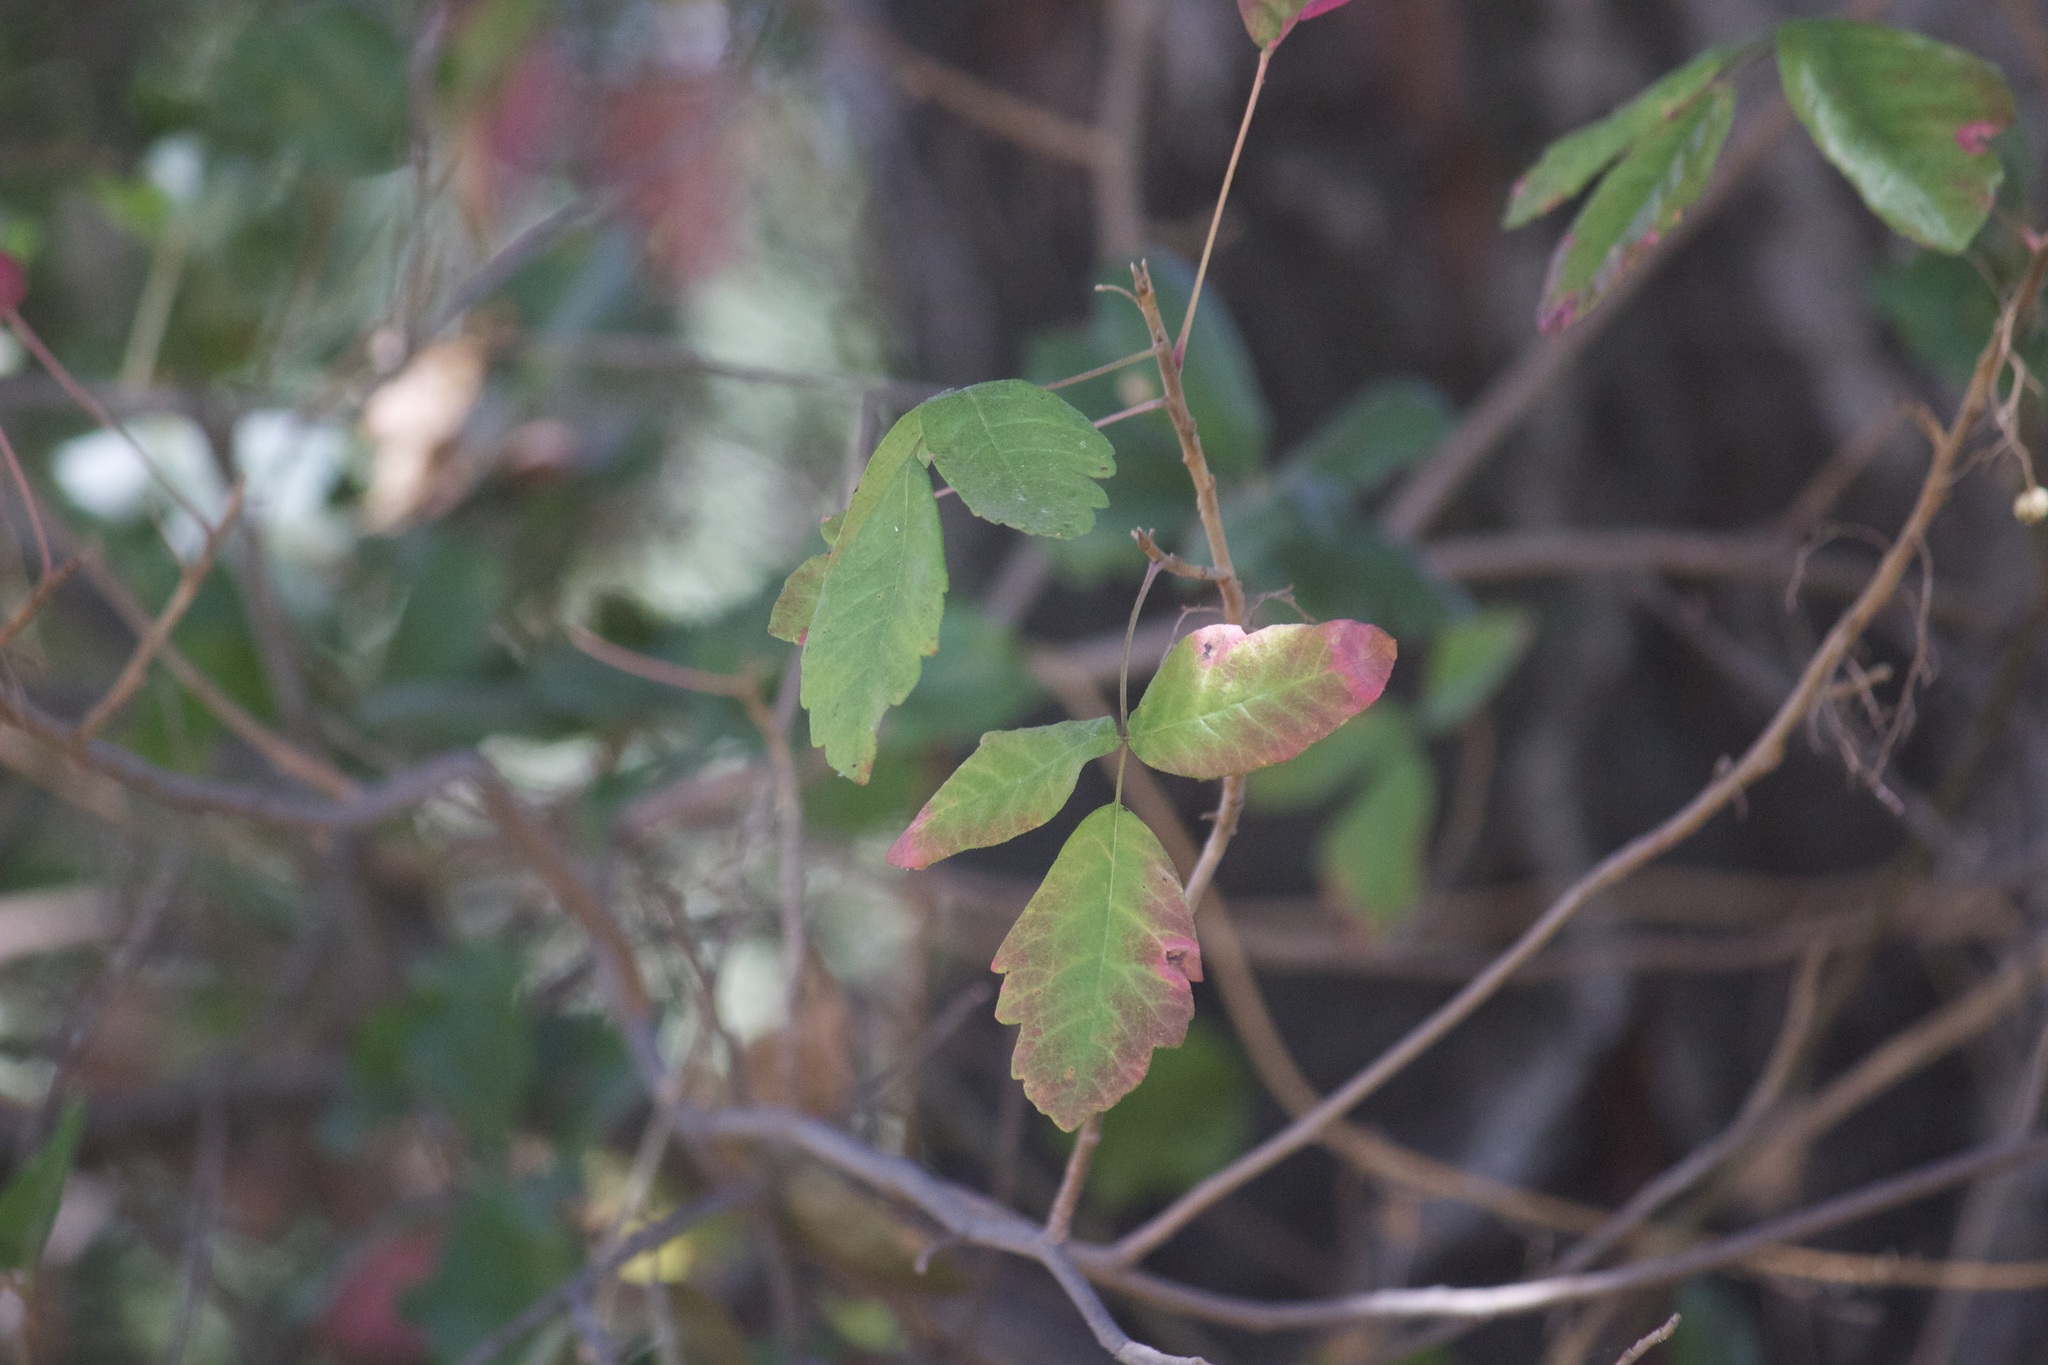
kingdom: Plantae
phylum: Tracheophyta
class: Magnoliopsida
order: Sapindales
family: Anacardiaceae
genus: Toxicodendron
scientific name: Toxicodendron diversilobum
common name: Pacific poison-oak
